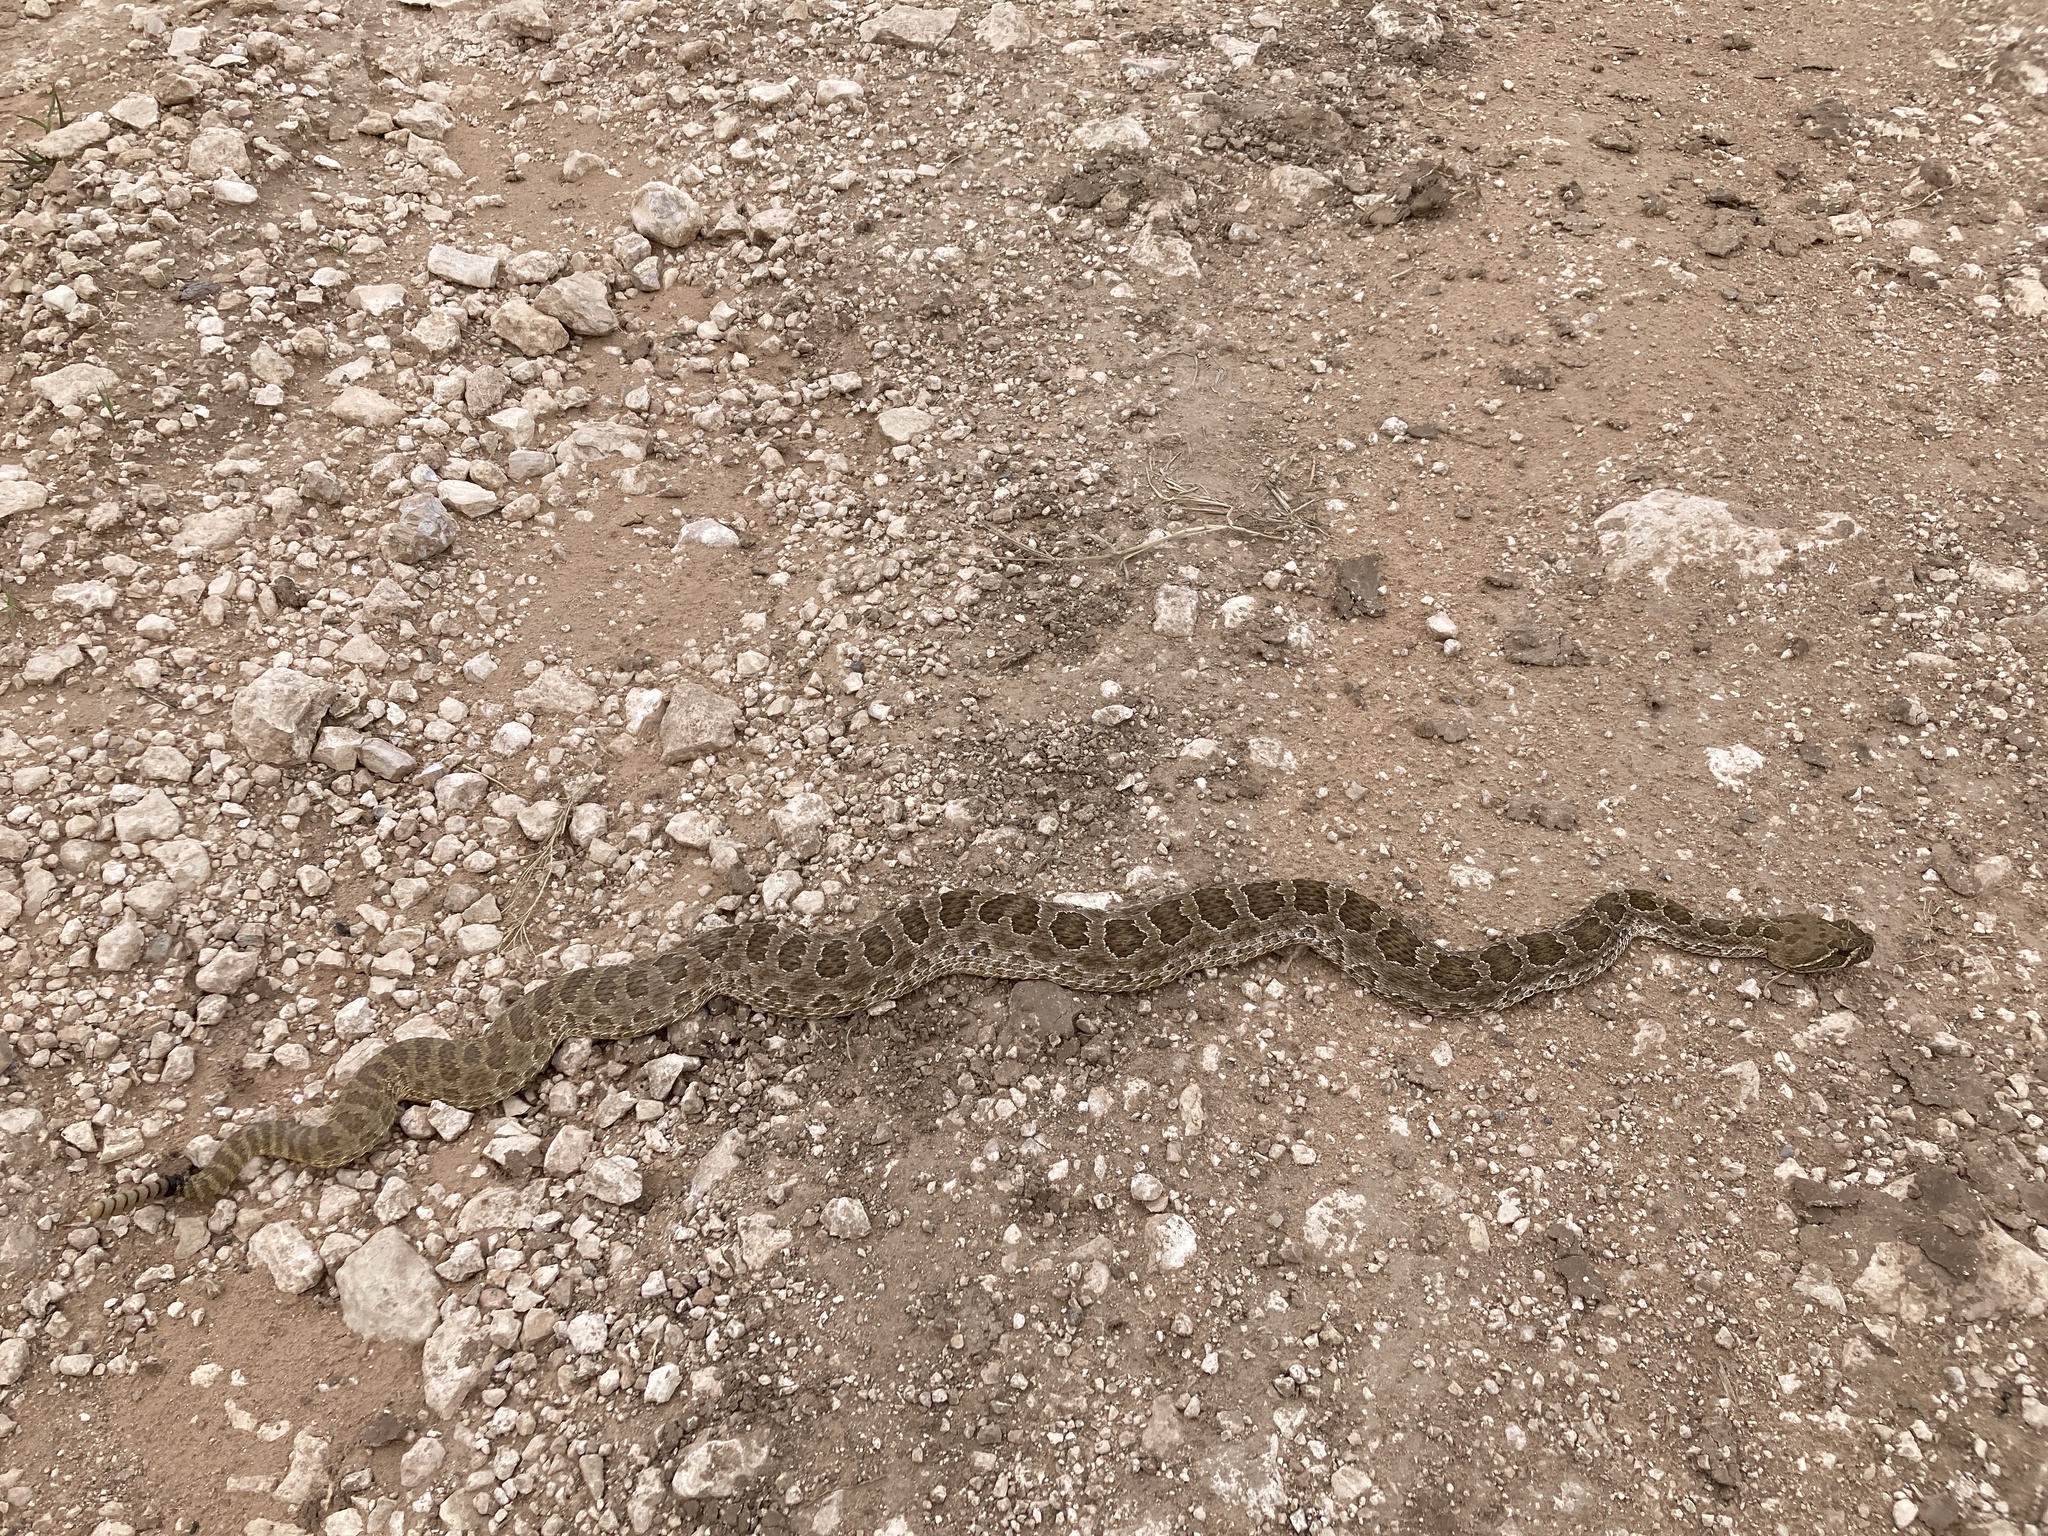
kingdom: Animalia
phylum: Chordata
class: Squamata
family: Viperidae
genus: Crotalus
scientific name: Crotalus viridis
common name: Prairie rattlesnake
